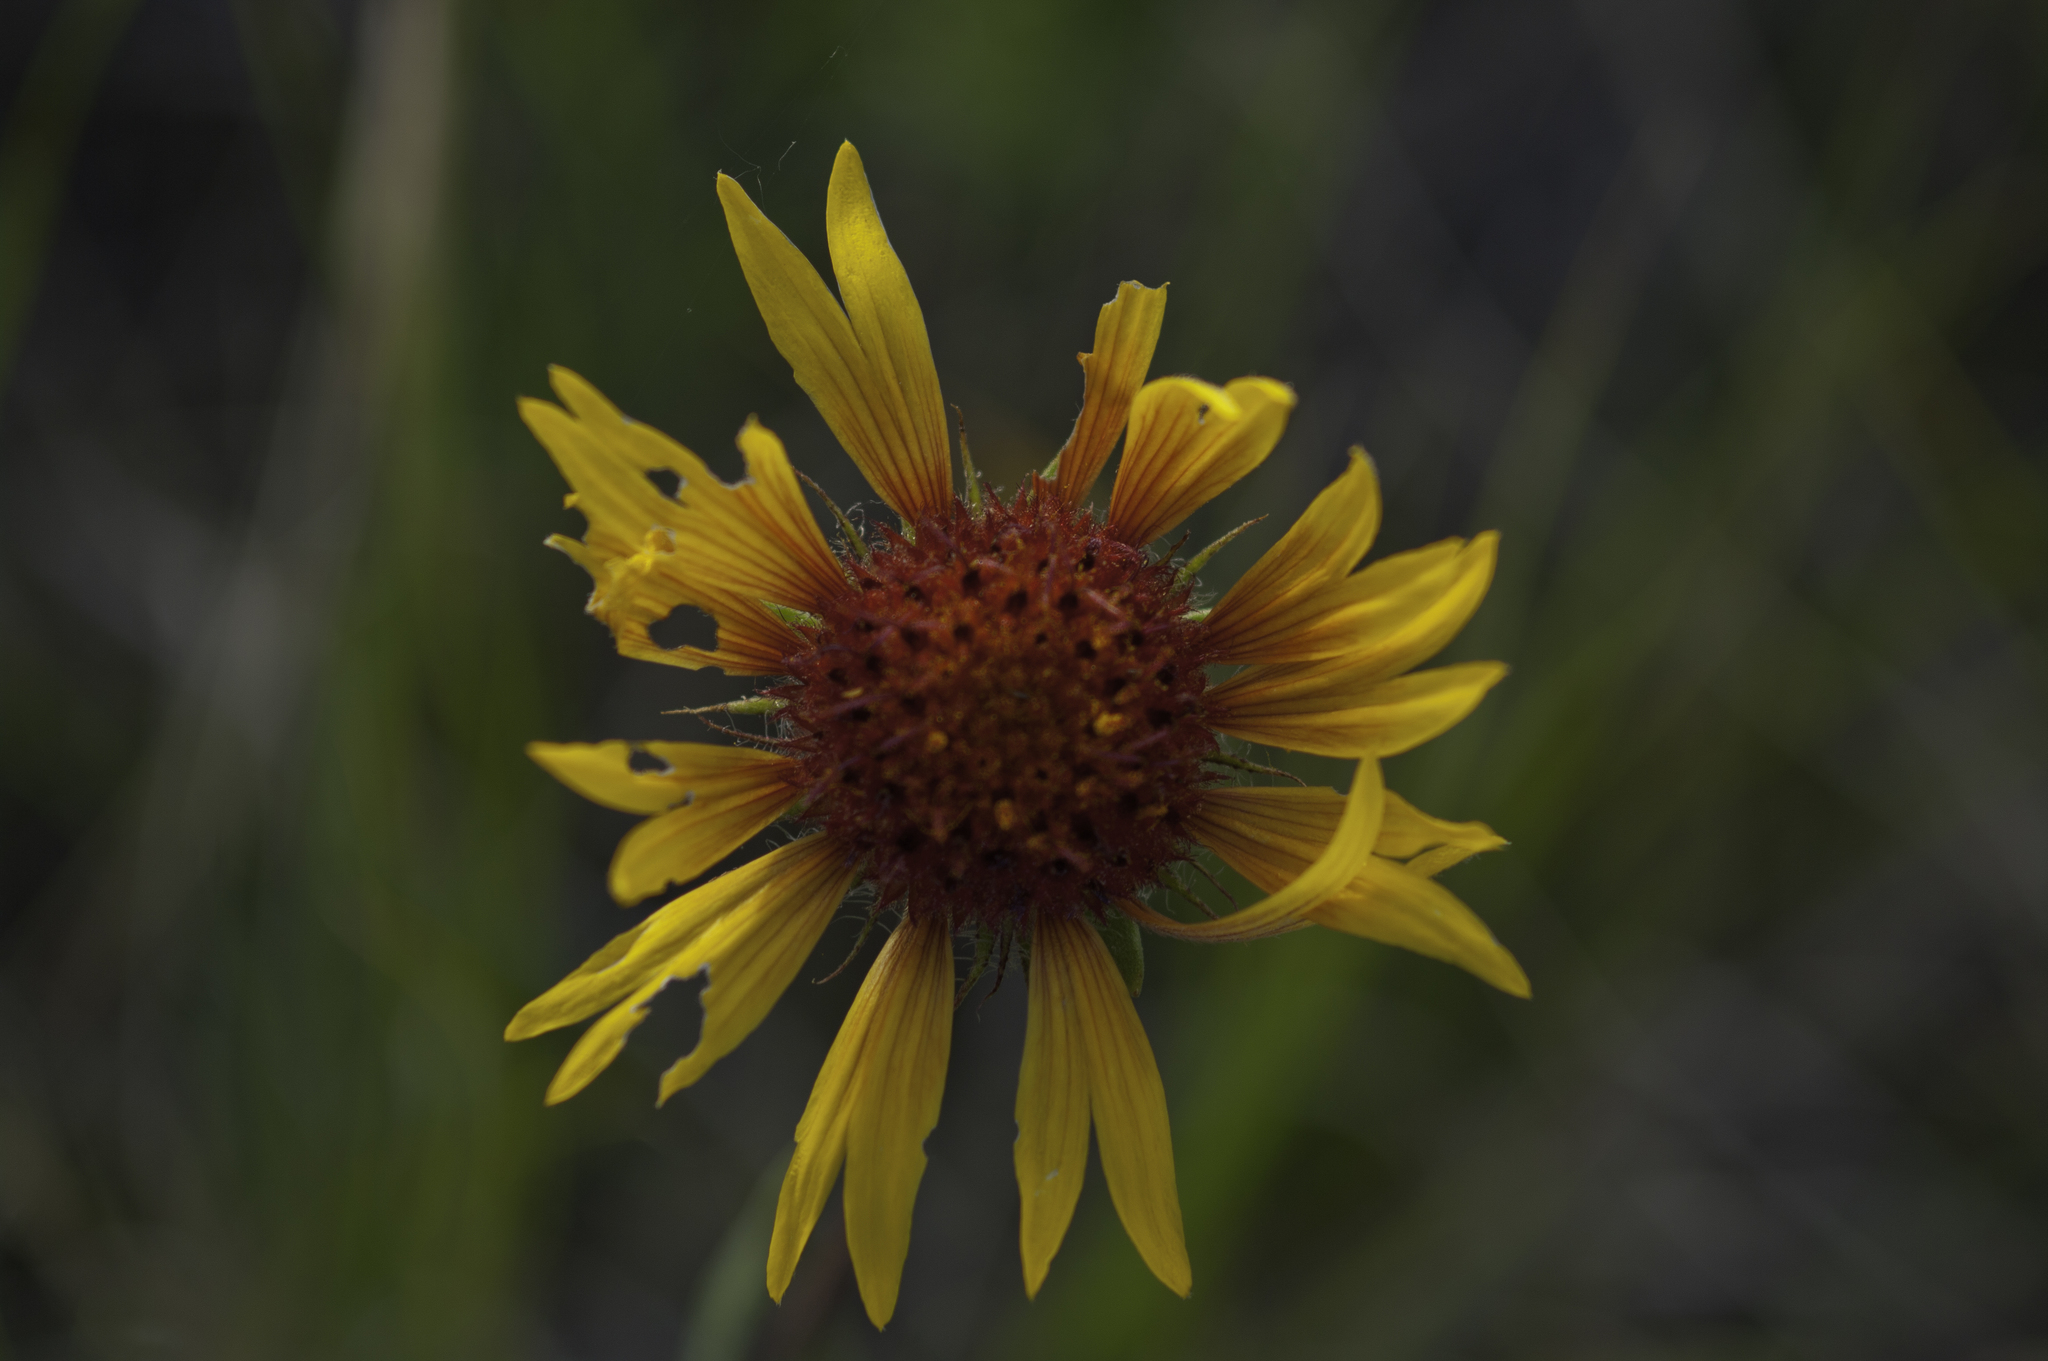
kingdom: Plantae
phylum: Tracheophyta
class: Magnoliopsida
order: Asterales
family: Asteraceae
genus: Gaillardia
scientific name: Gaillardia aristata
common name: Blanket-flower
